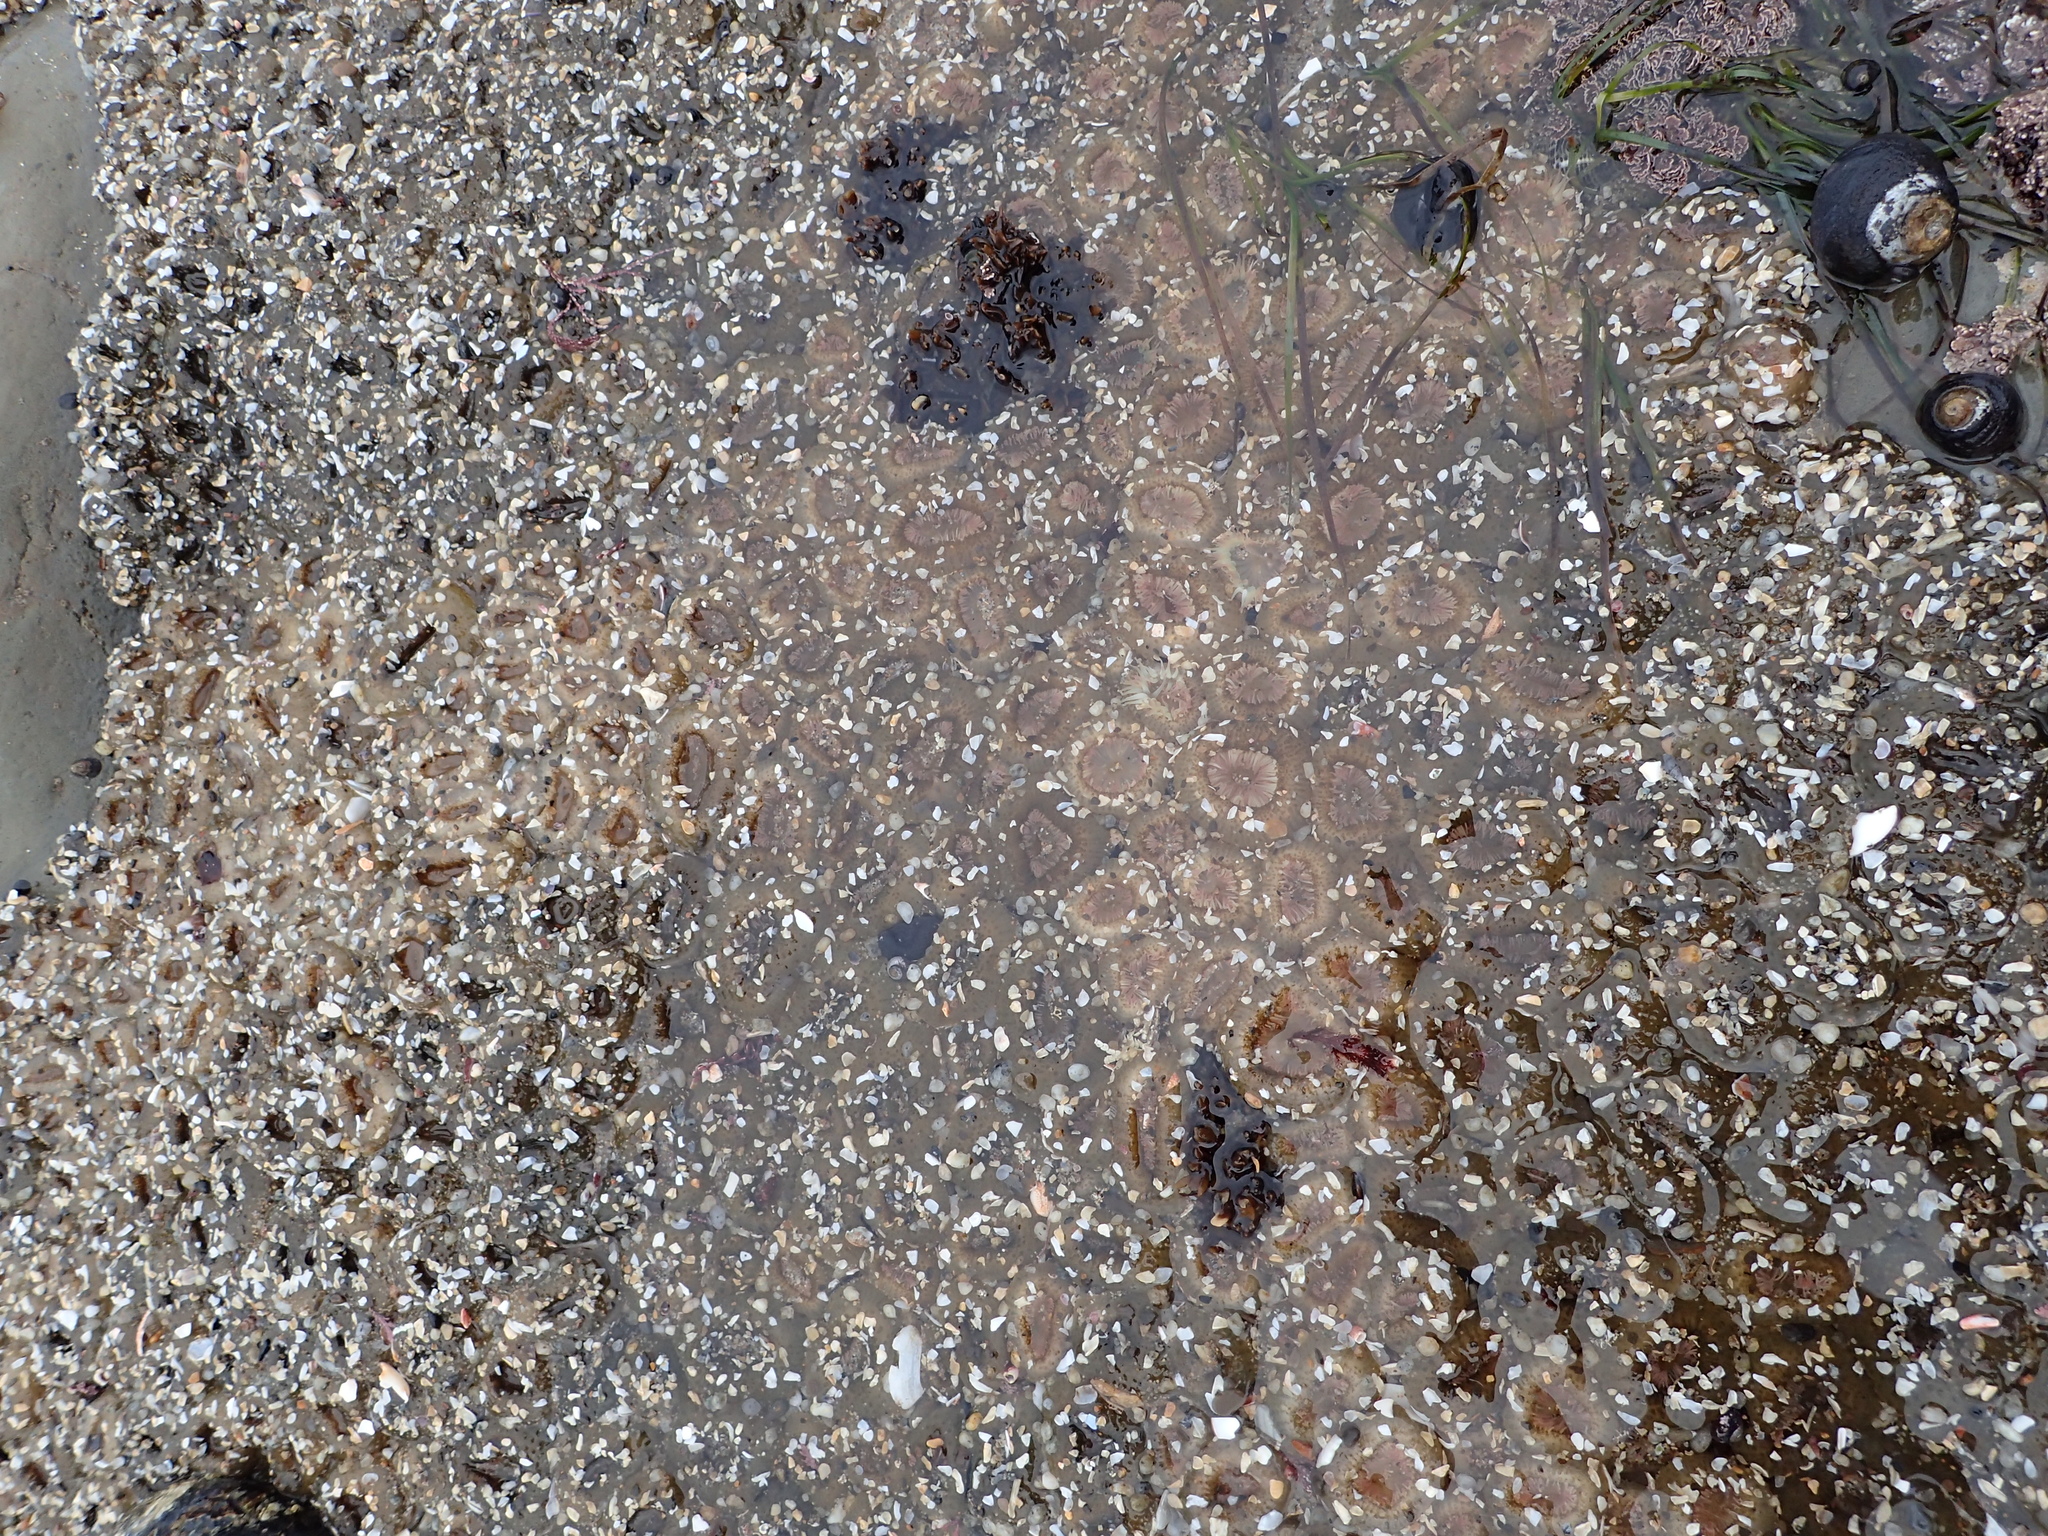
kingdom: Animalia
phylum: Cnidaria
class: Anthozoa
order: Actiniaria
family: Actiniidae
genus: Anthopleura
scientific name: Anthopleura elegantissima
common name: Clonal anemone
